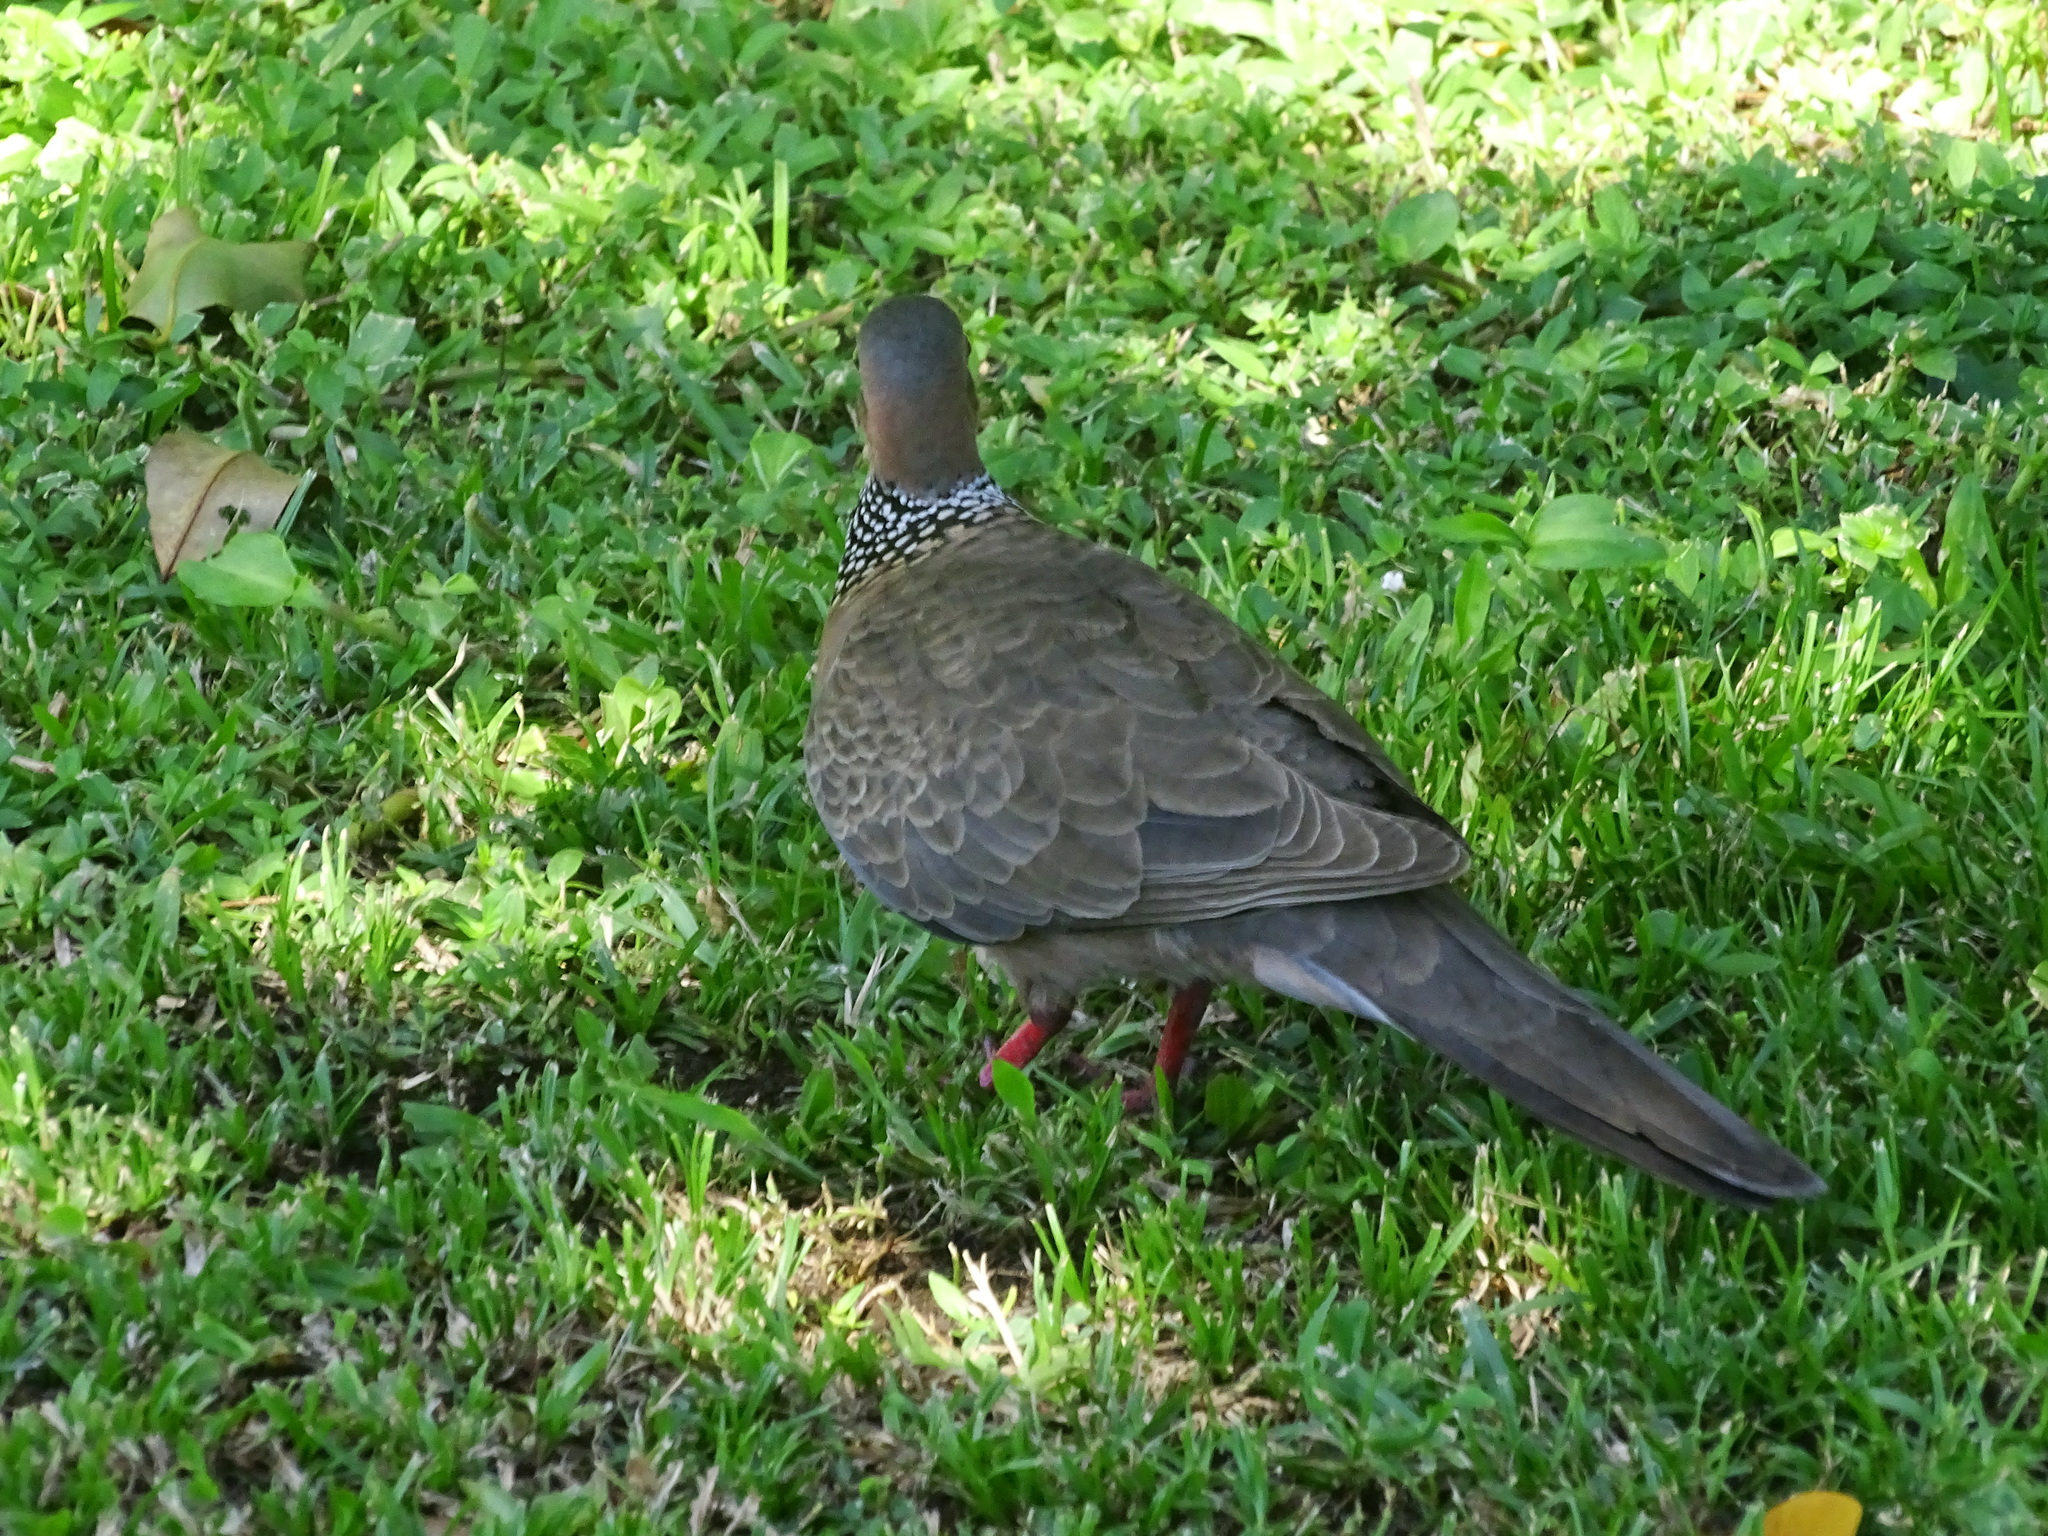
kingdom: Animalia
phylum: Chordata
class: Aves
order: Columbiformes
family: Columbidae
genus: Spilopelia
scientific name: Spilopelia chinensis
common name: Spotted dove
